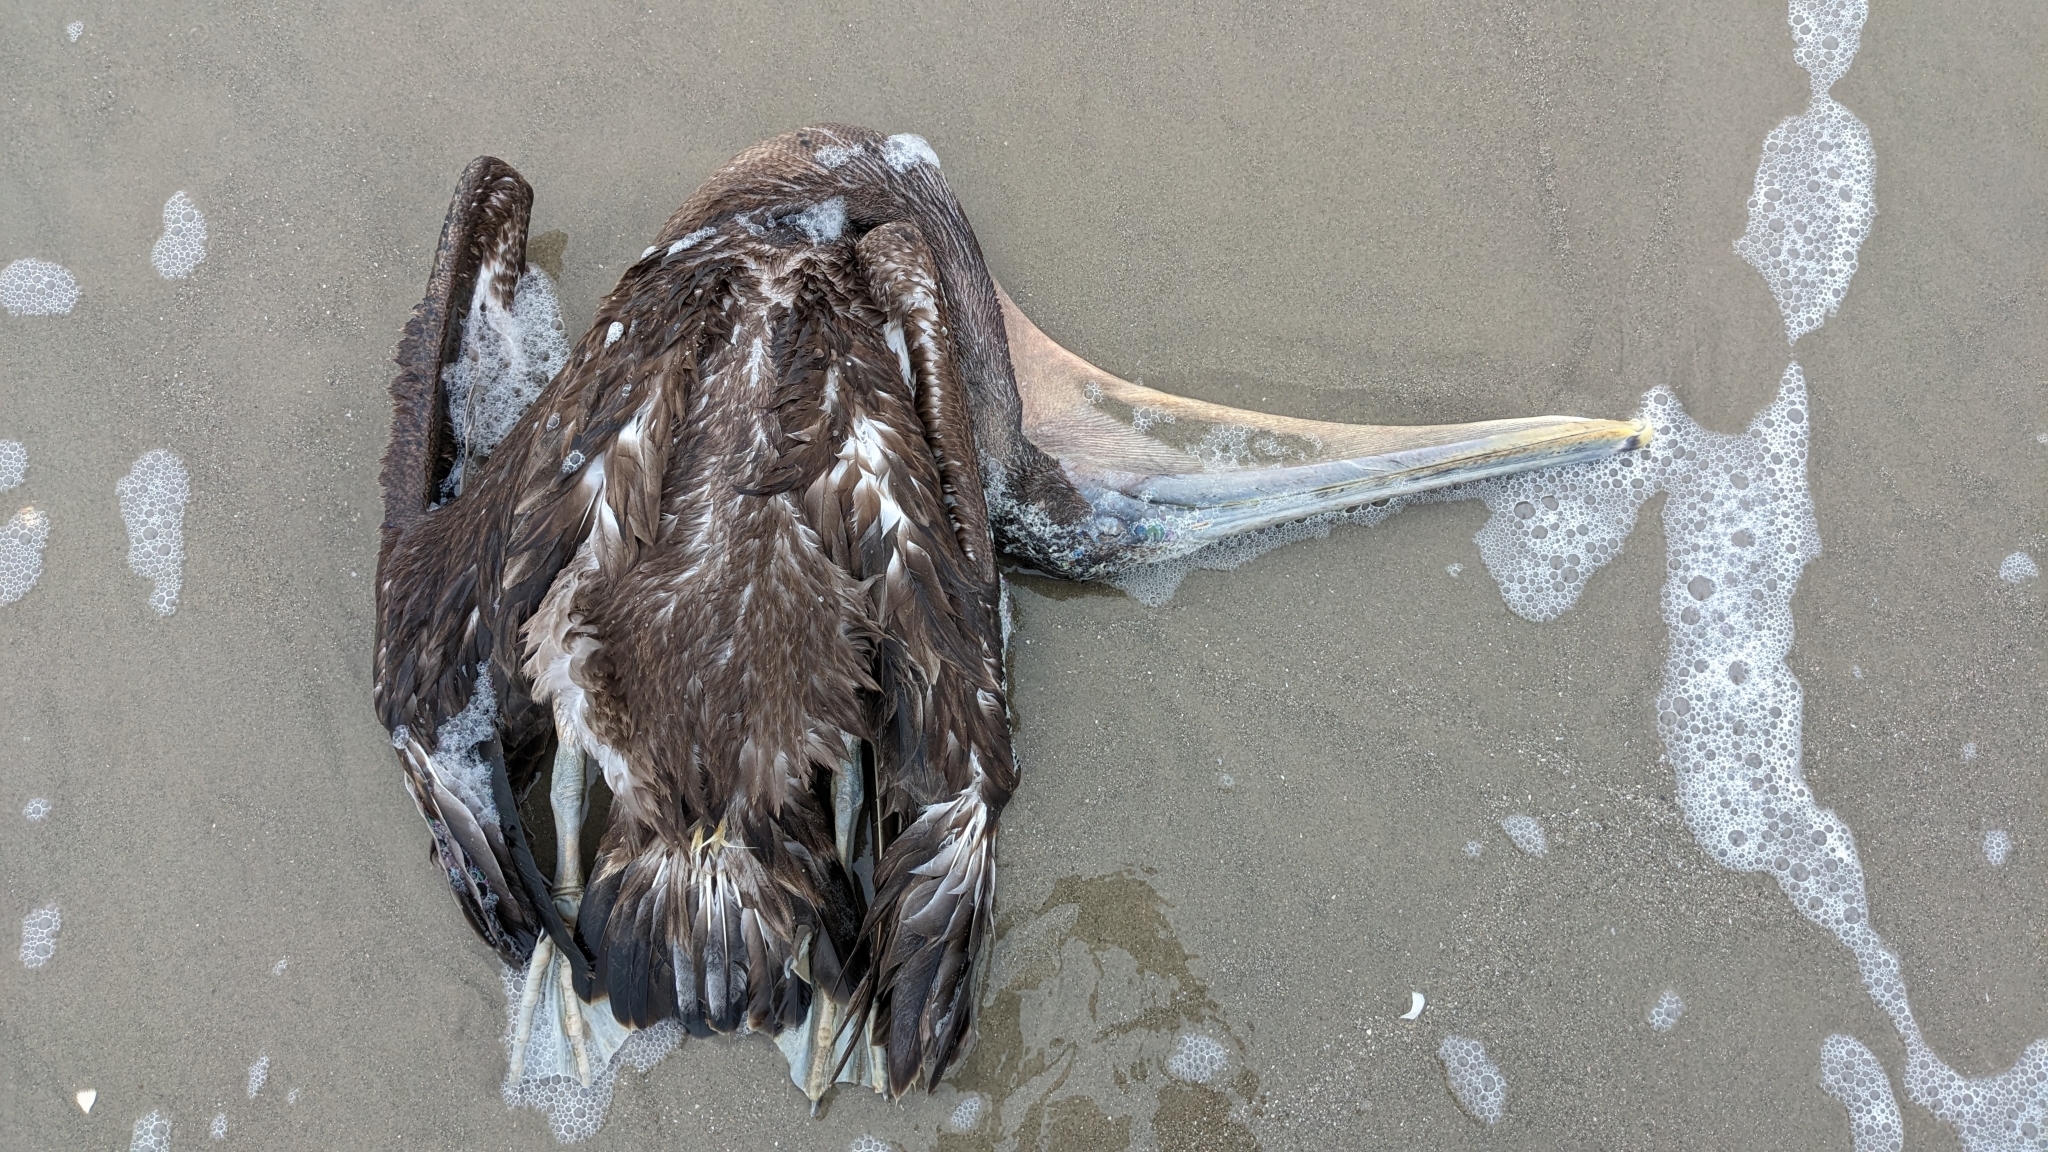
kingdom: Animalia
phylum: Chordata
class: Aves
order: Pelecaniformes
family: Pelecanidae
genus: Pelecanus
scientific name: Pelecanus occidentalis
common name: Brown pelican
